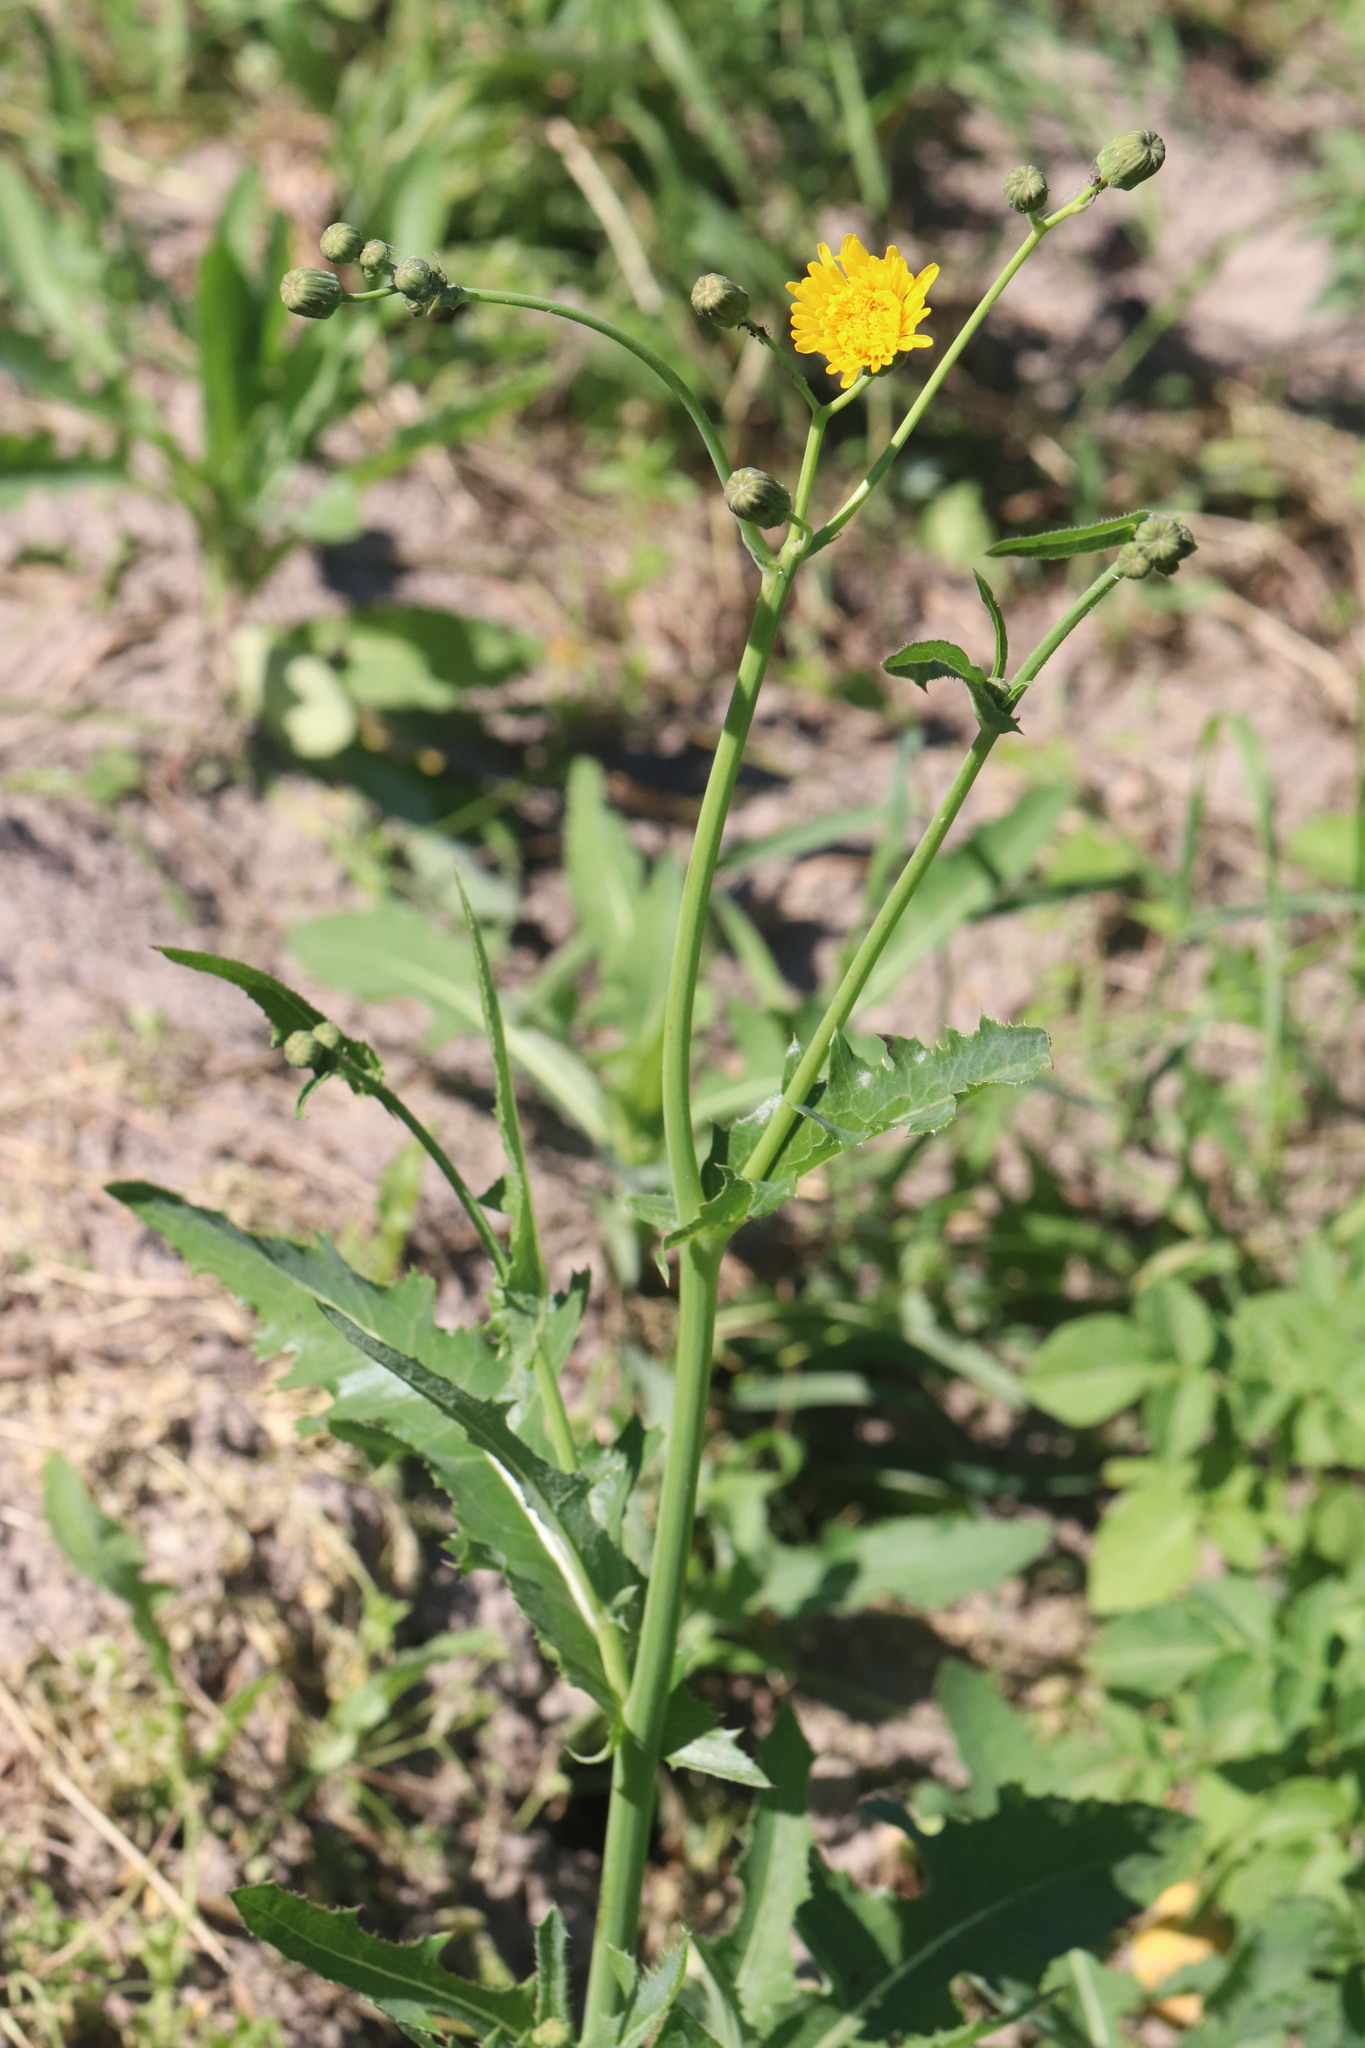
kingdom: Plantae
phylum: Tracheophyta
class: Magnoliopsida
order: Asterales
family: Asteraceae
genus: Sonchus
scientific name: Sonchus arvensis
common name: Perennial sow-thistle
